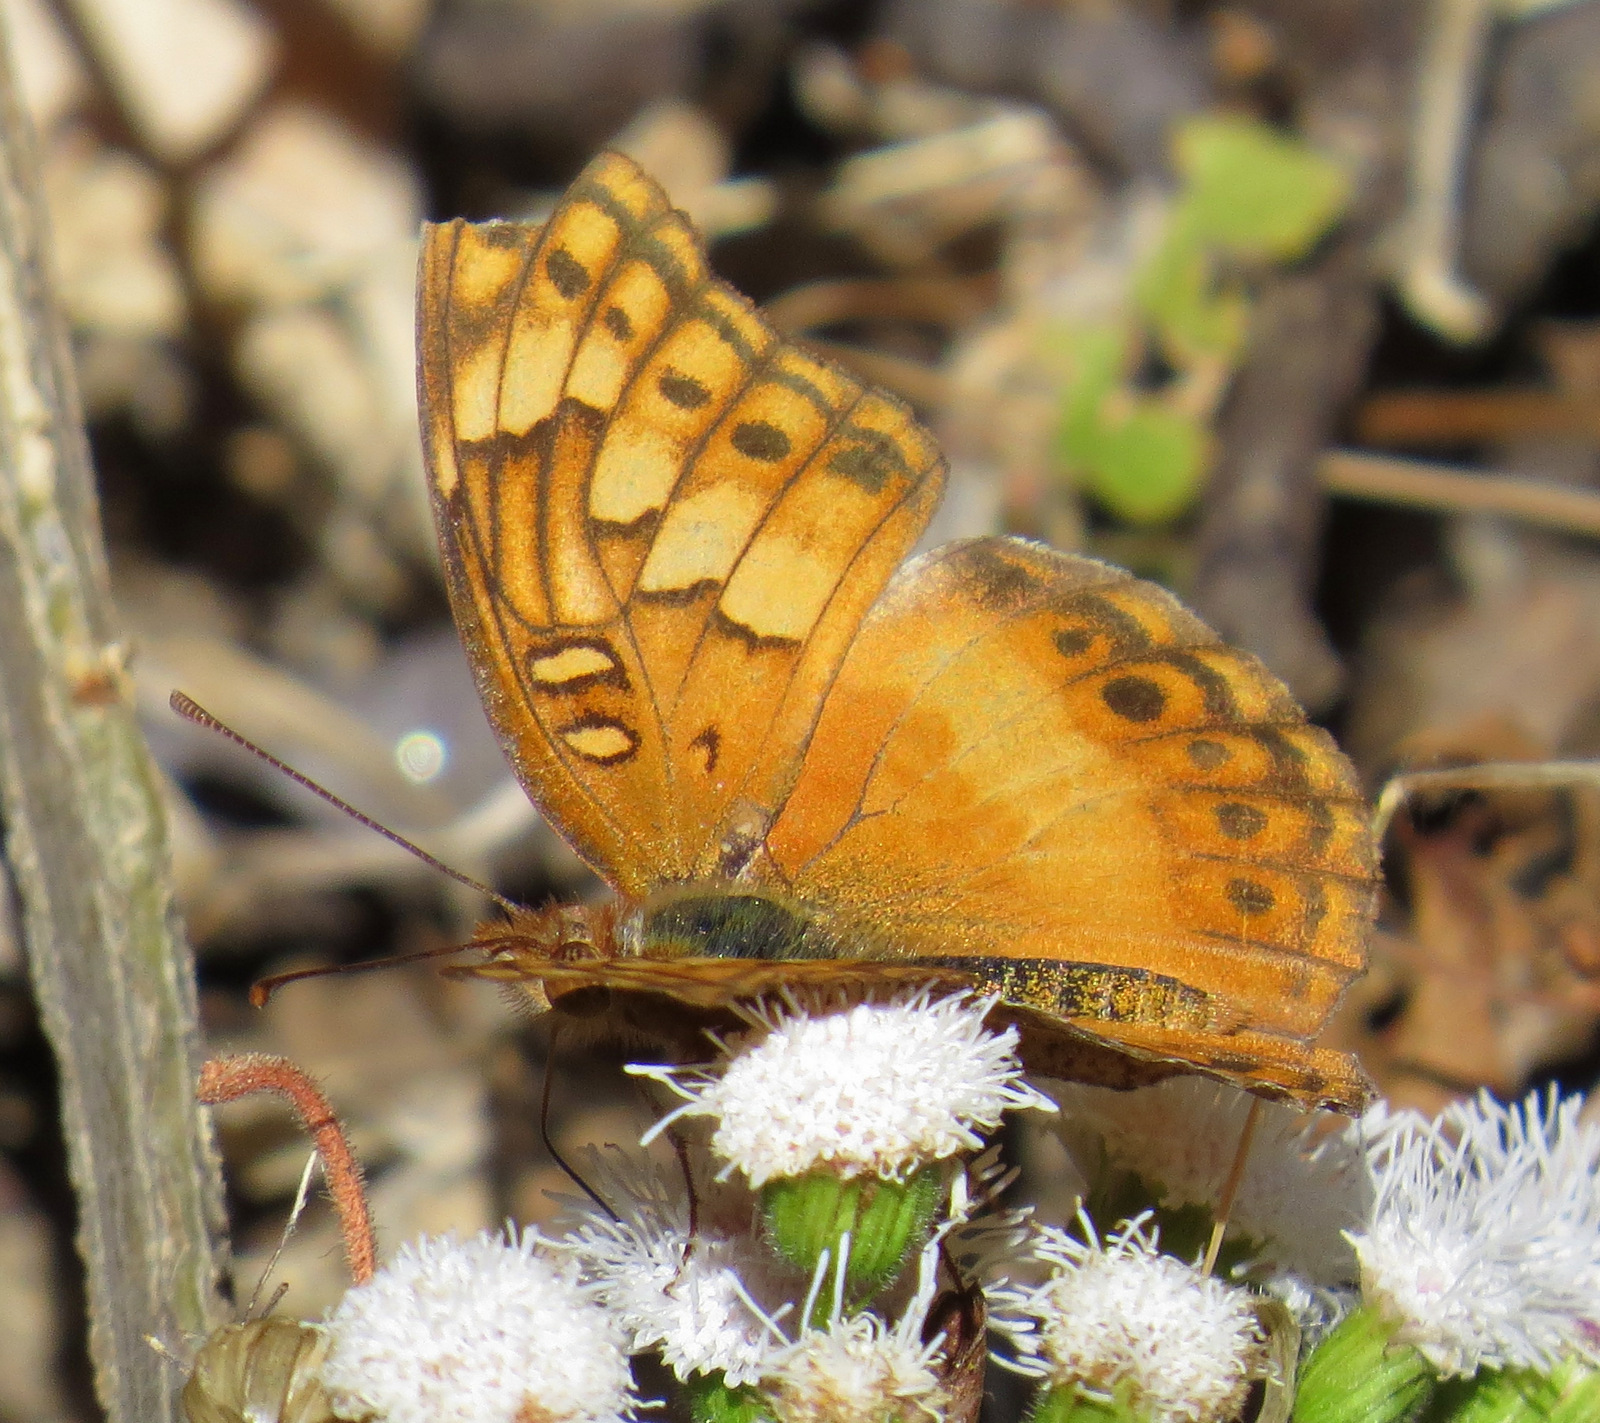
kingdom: Animalia
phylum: Arthropoda
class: Insecta
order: Lepidoptera
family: Nymphalidae
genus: Euptoieta
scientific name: Euptoieta hegesia
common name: Mexican fritillary
